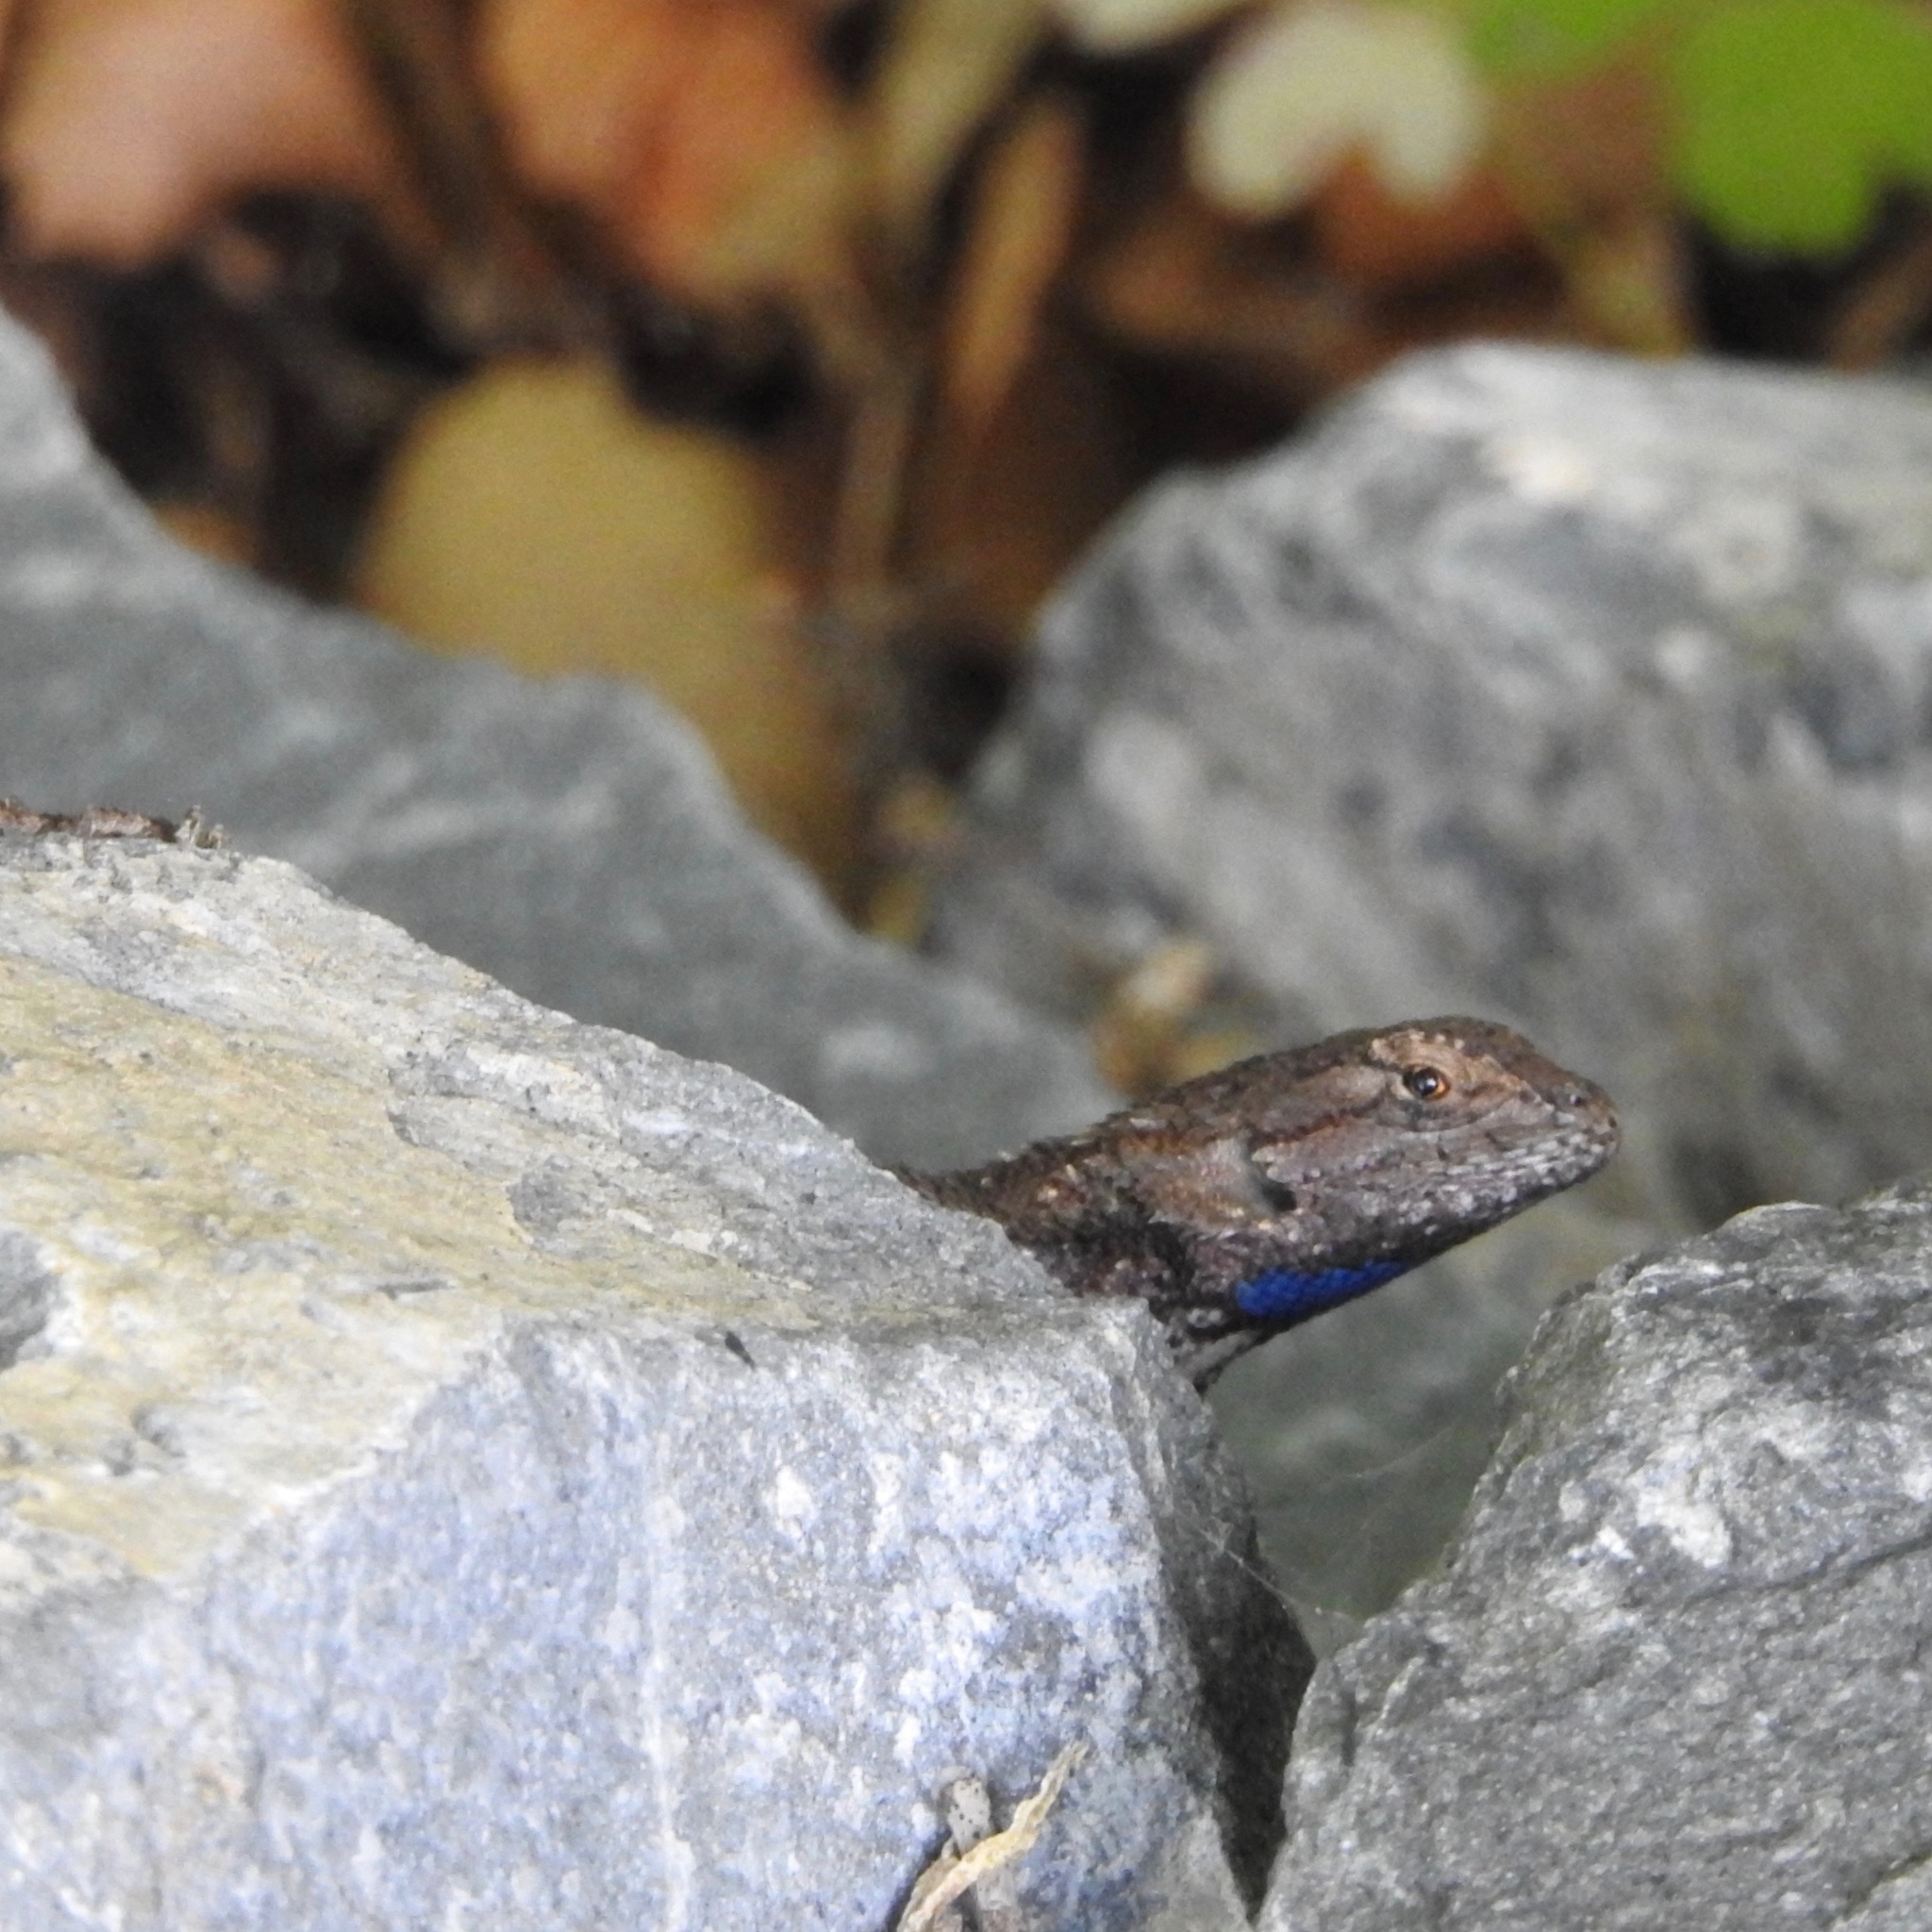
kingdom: Animalia
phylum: Chordata
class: Squamata
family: Phrynosomatidae
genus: Sceloporus
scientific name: Sceloporus occidentalis
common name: Western fence lizard
